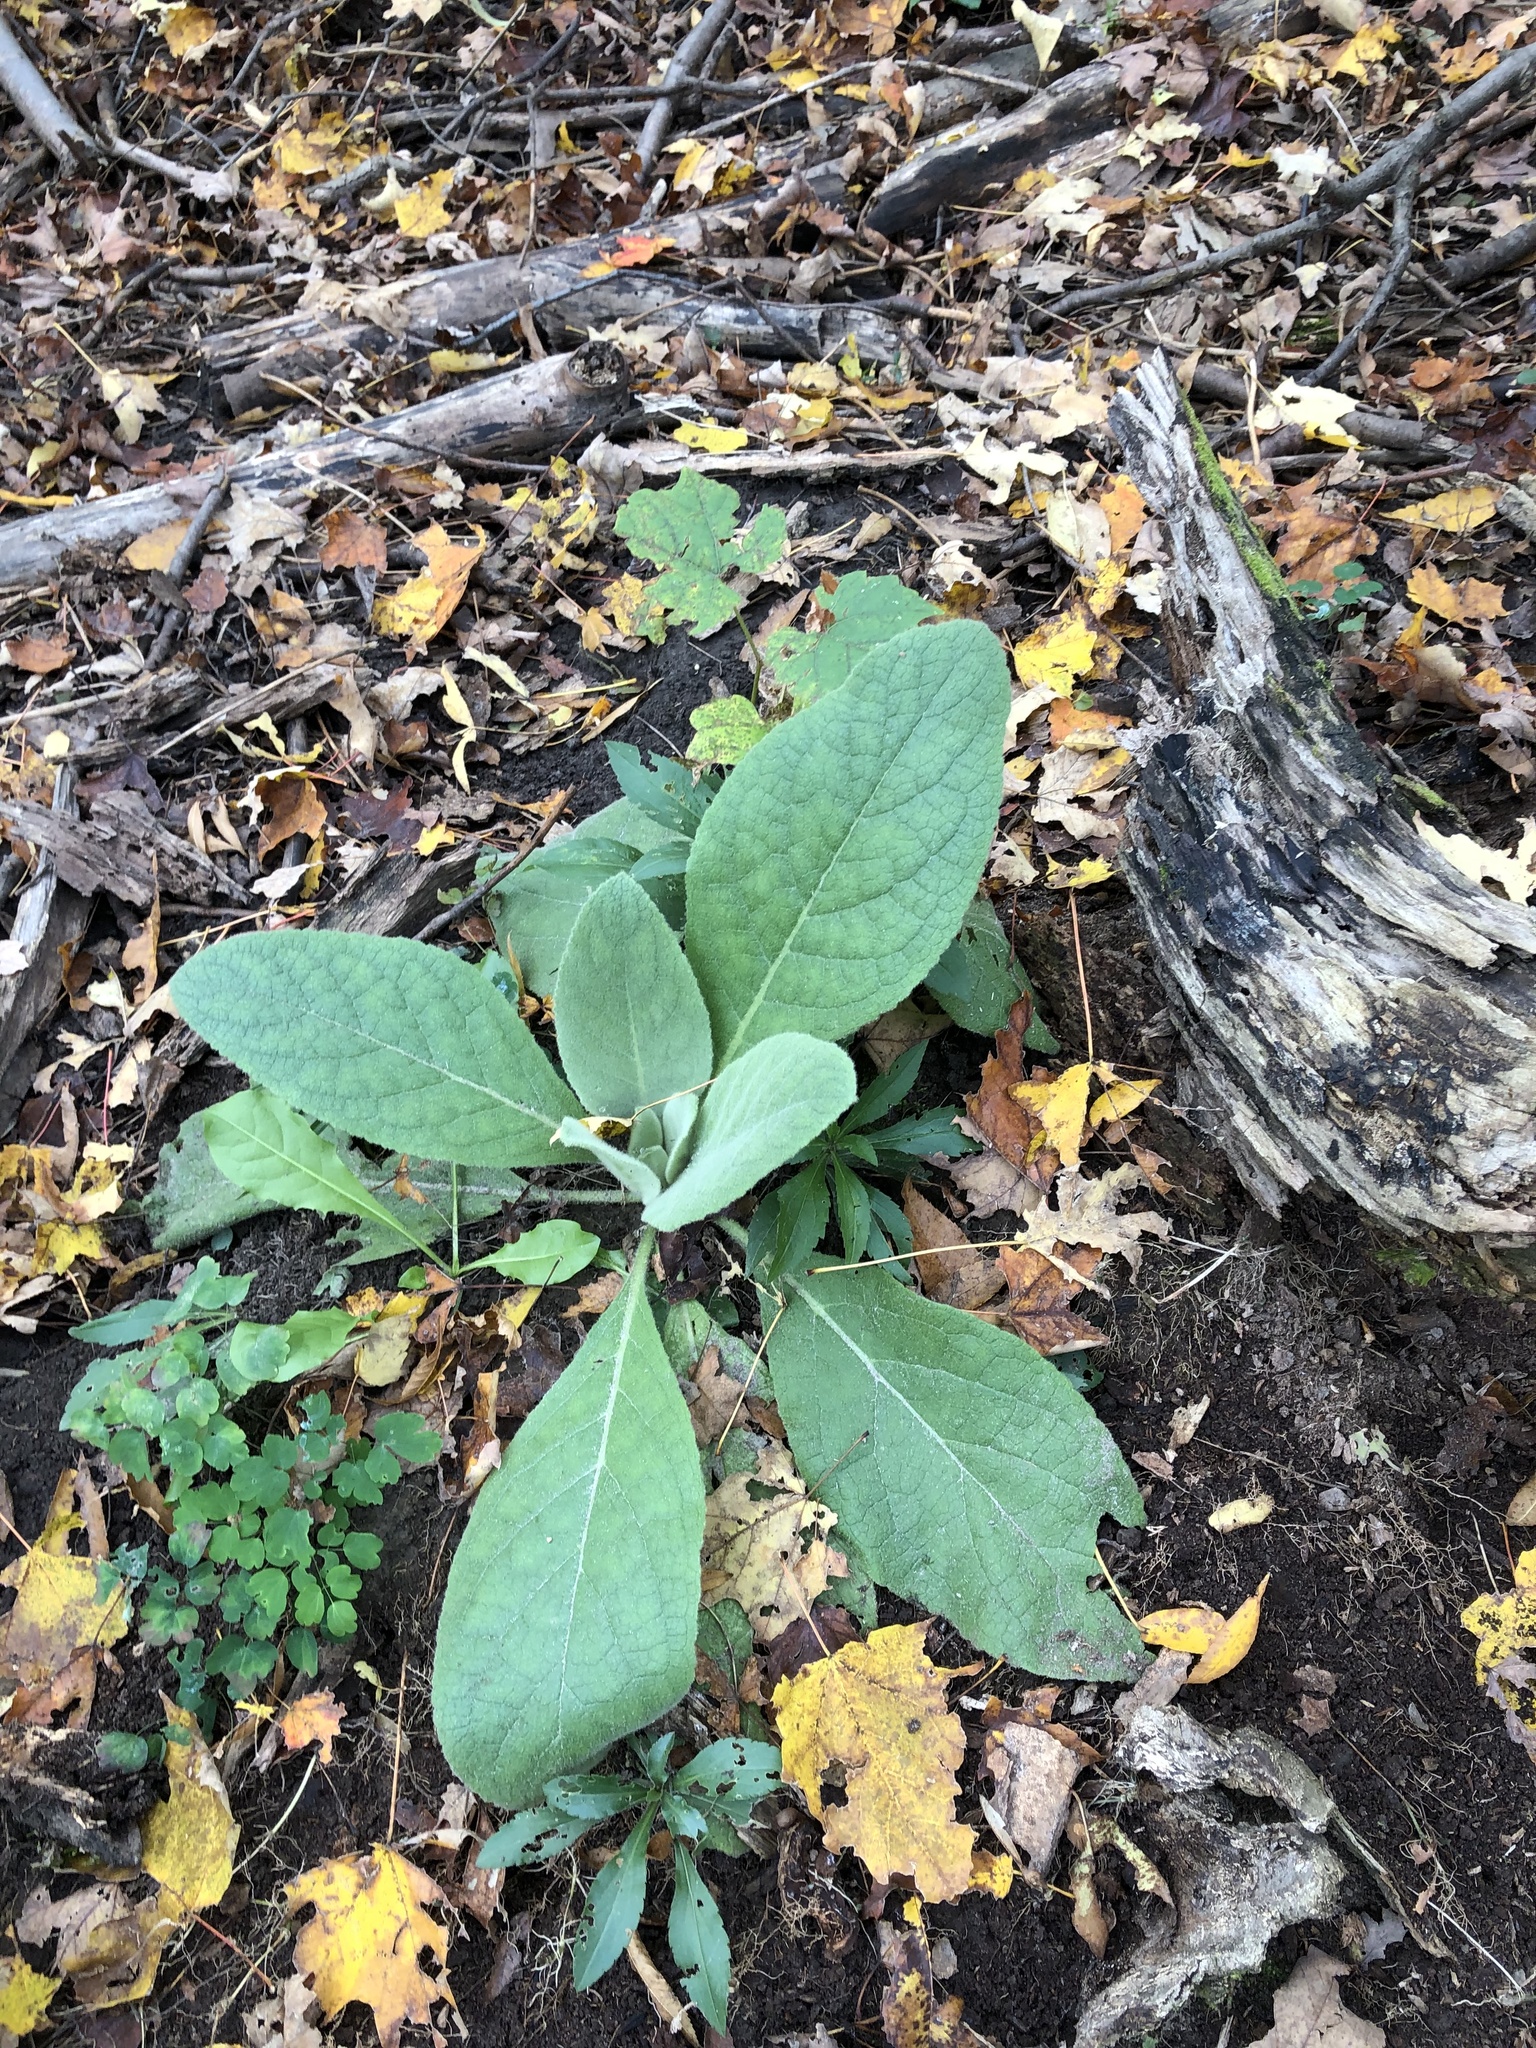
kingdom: Plantae
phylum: Tracheophyta
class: Magnoliopsida
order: Lamiales
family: Scrophulariaceae
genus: Verbascum
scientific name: Verbascum thapsus
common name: Common mullein
